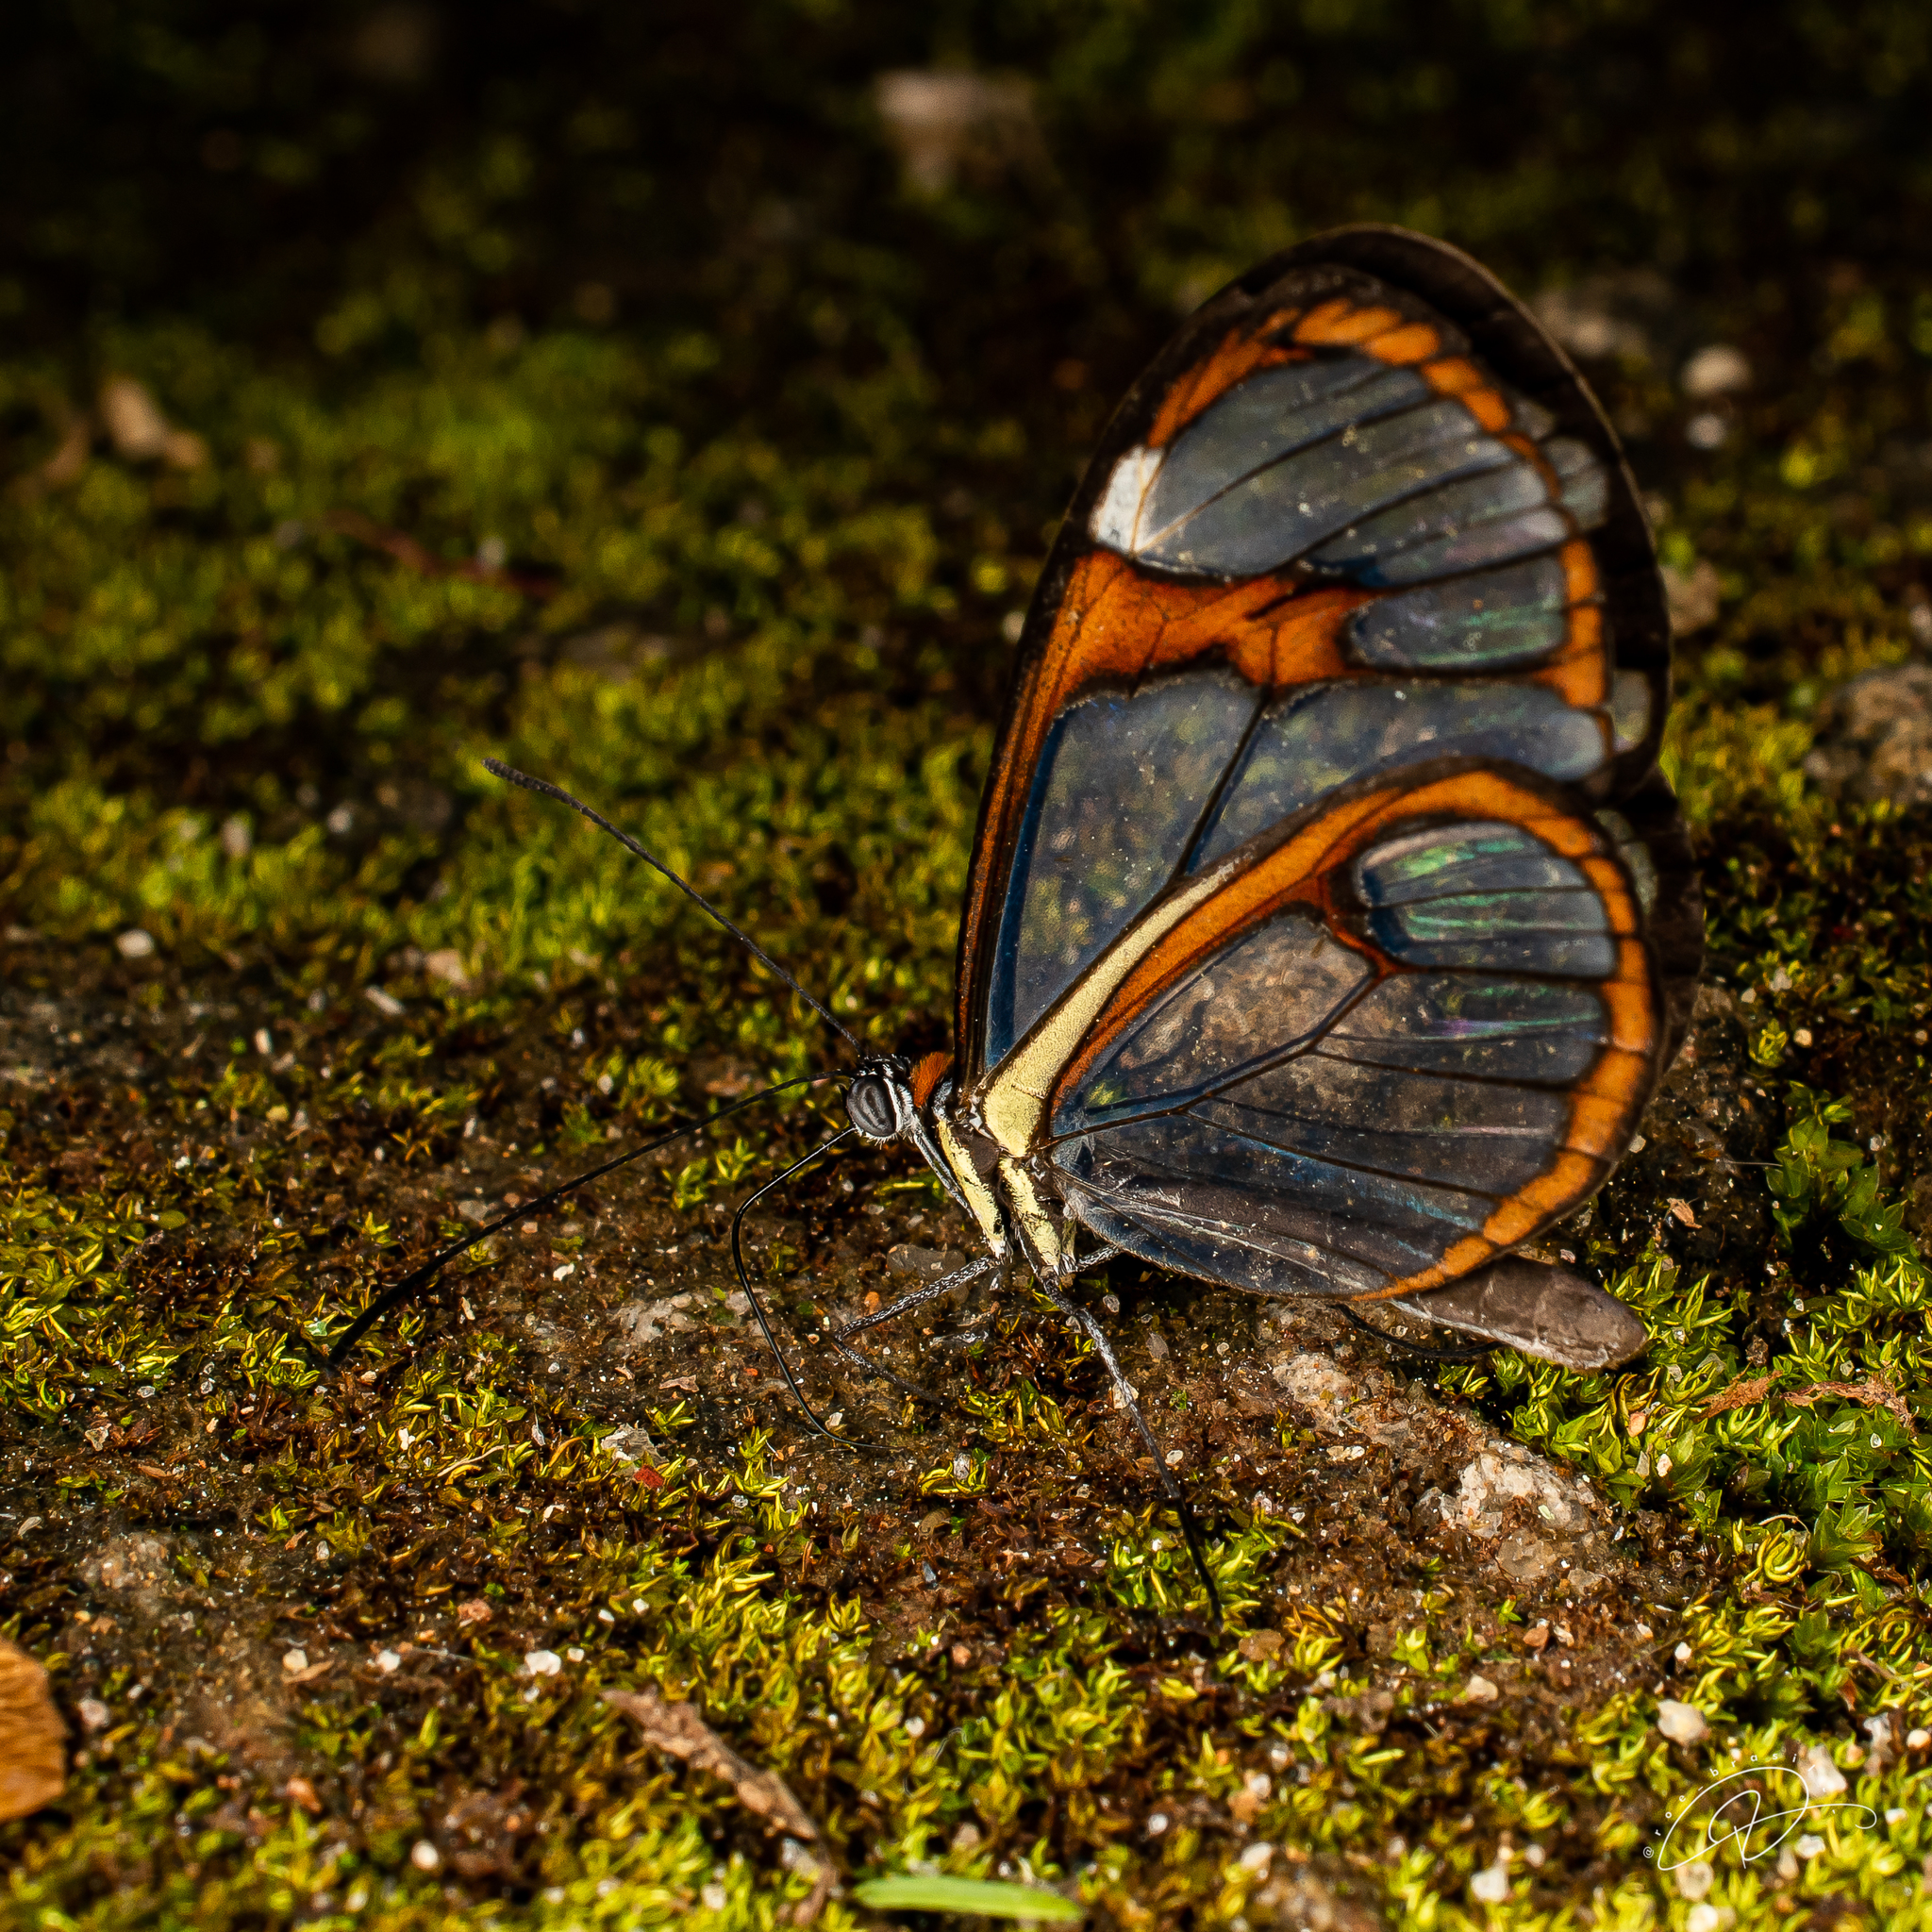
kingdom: Animalia
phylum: Arthropoda
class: Insecta
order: Lepidoptera
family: Nymphalidae
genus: Ithomia
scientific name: Ithomia drymo
